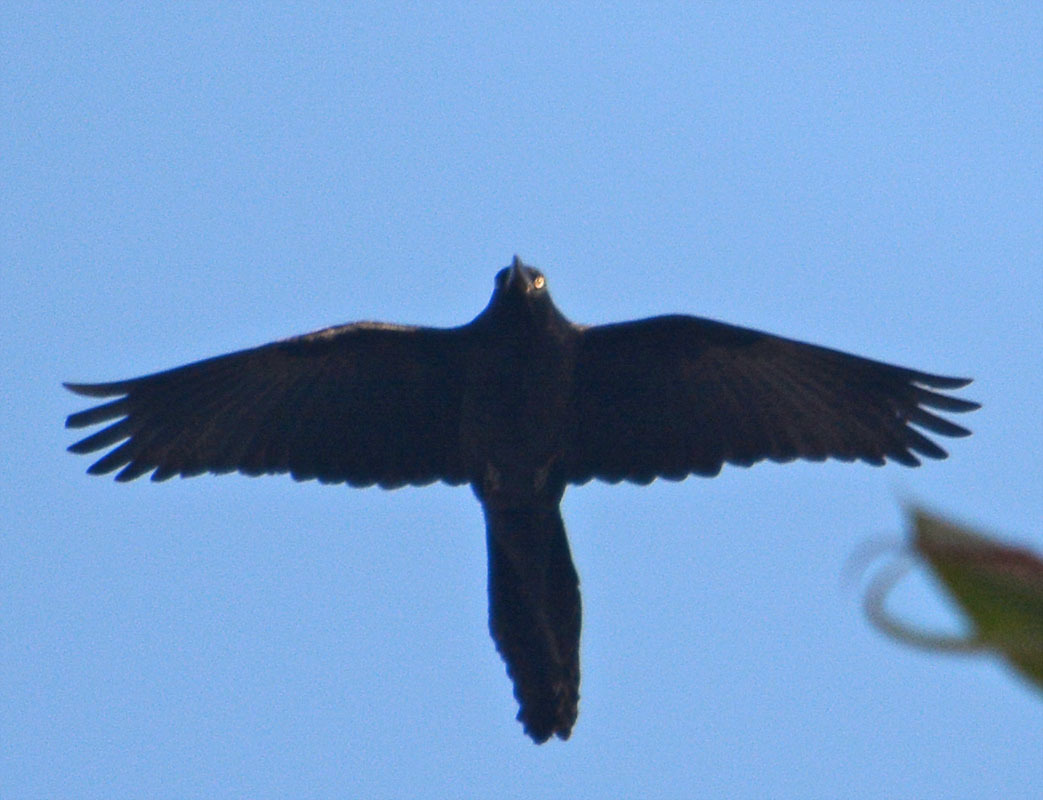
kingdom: Animalia
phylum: Chordata
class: Aves
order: Passeriformes
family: Icteridae
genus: Quiscalus
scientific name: Quiscalus mexicanus
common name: Great-tailed grackle
